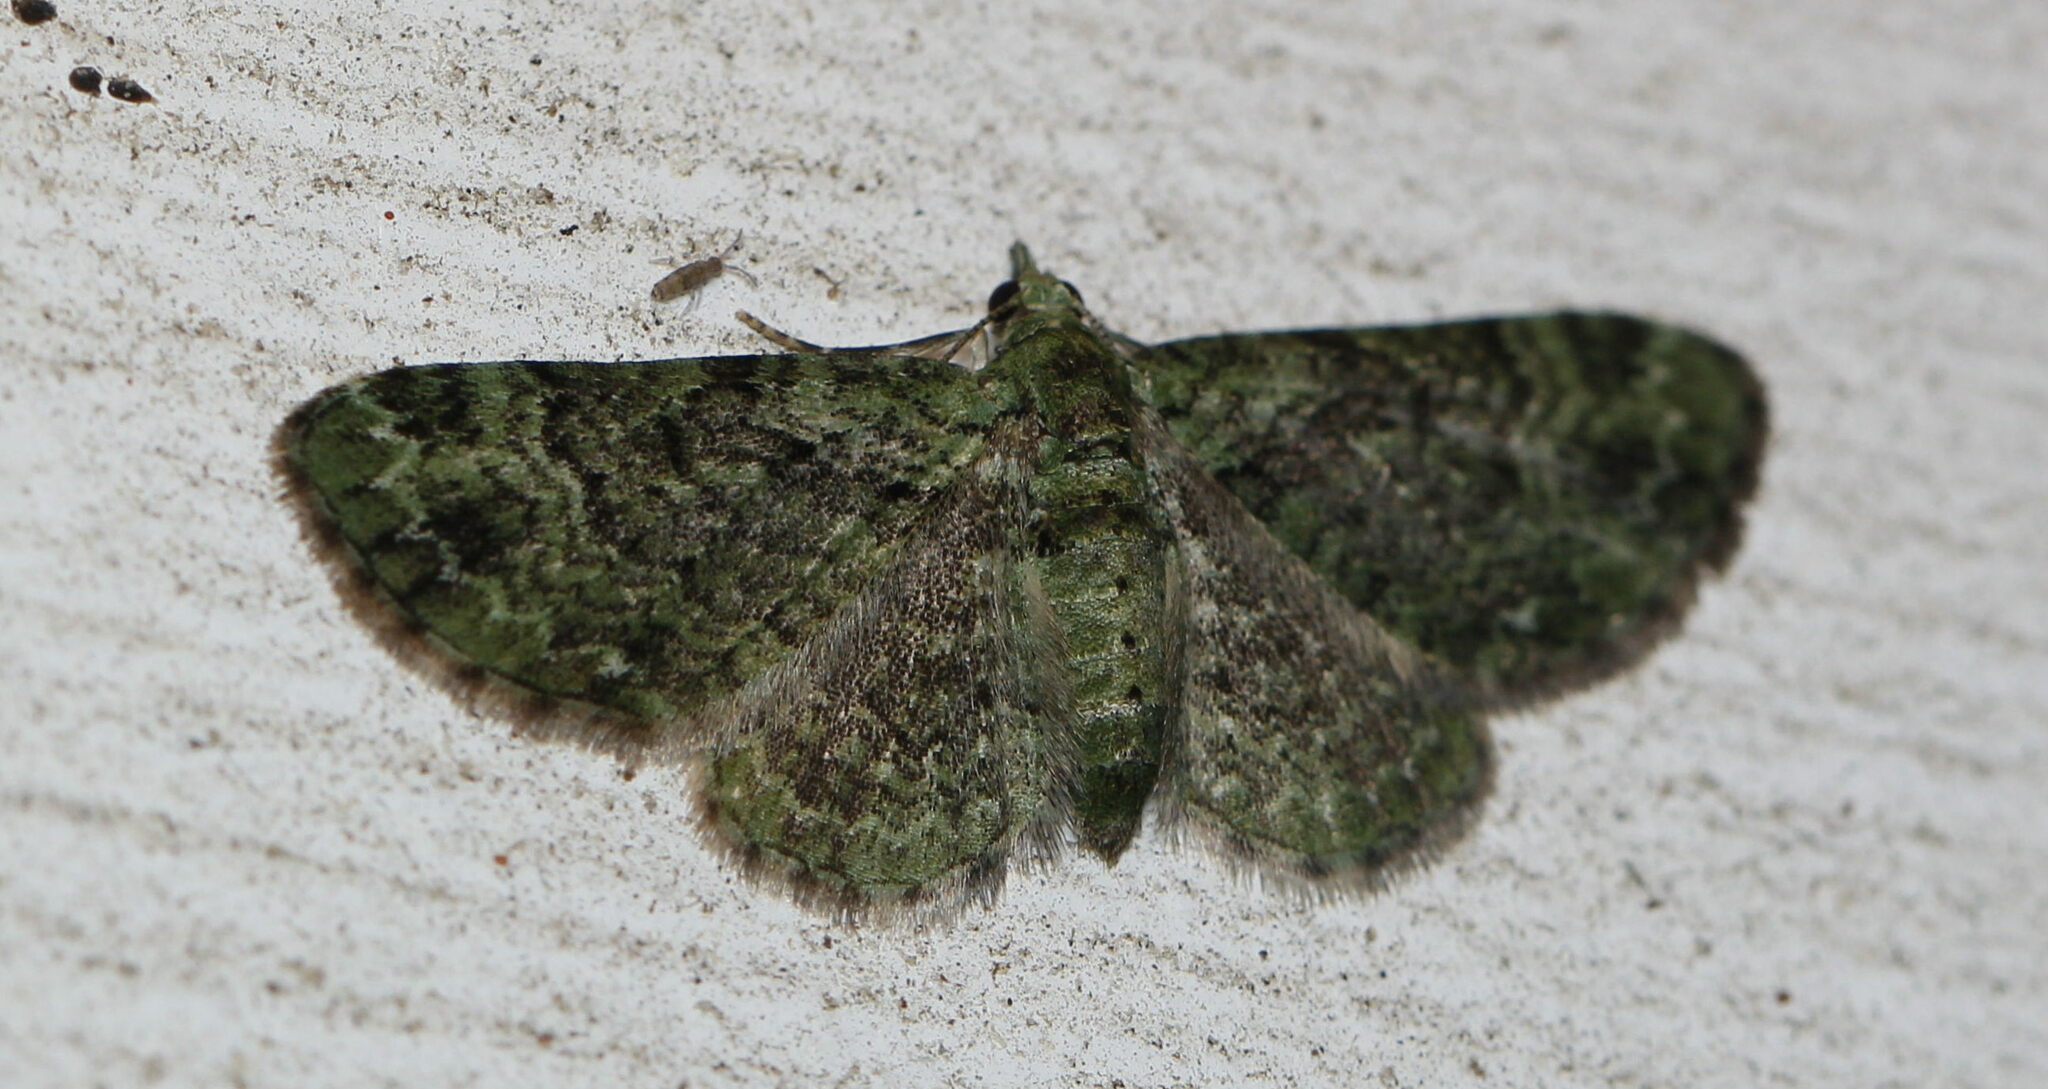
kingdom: Animalia
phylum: Arthropoda
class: Insecta
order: Lepidoptera
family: Geometridae
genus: Pasiphila
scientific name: Pasiphila rectangulata
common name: Green pug
